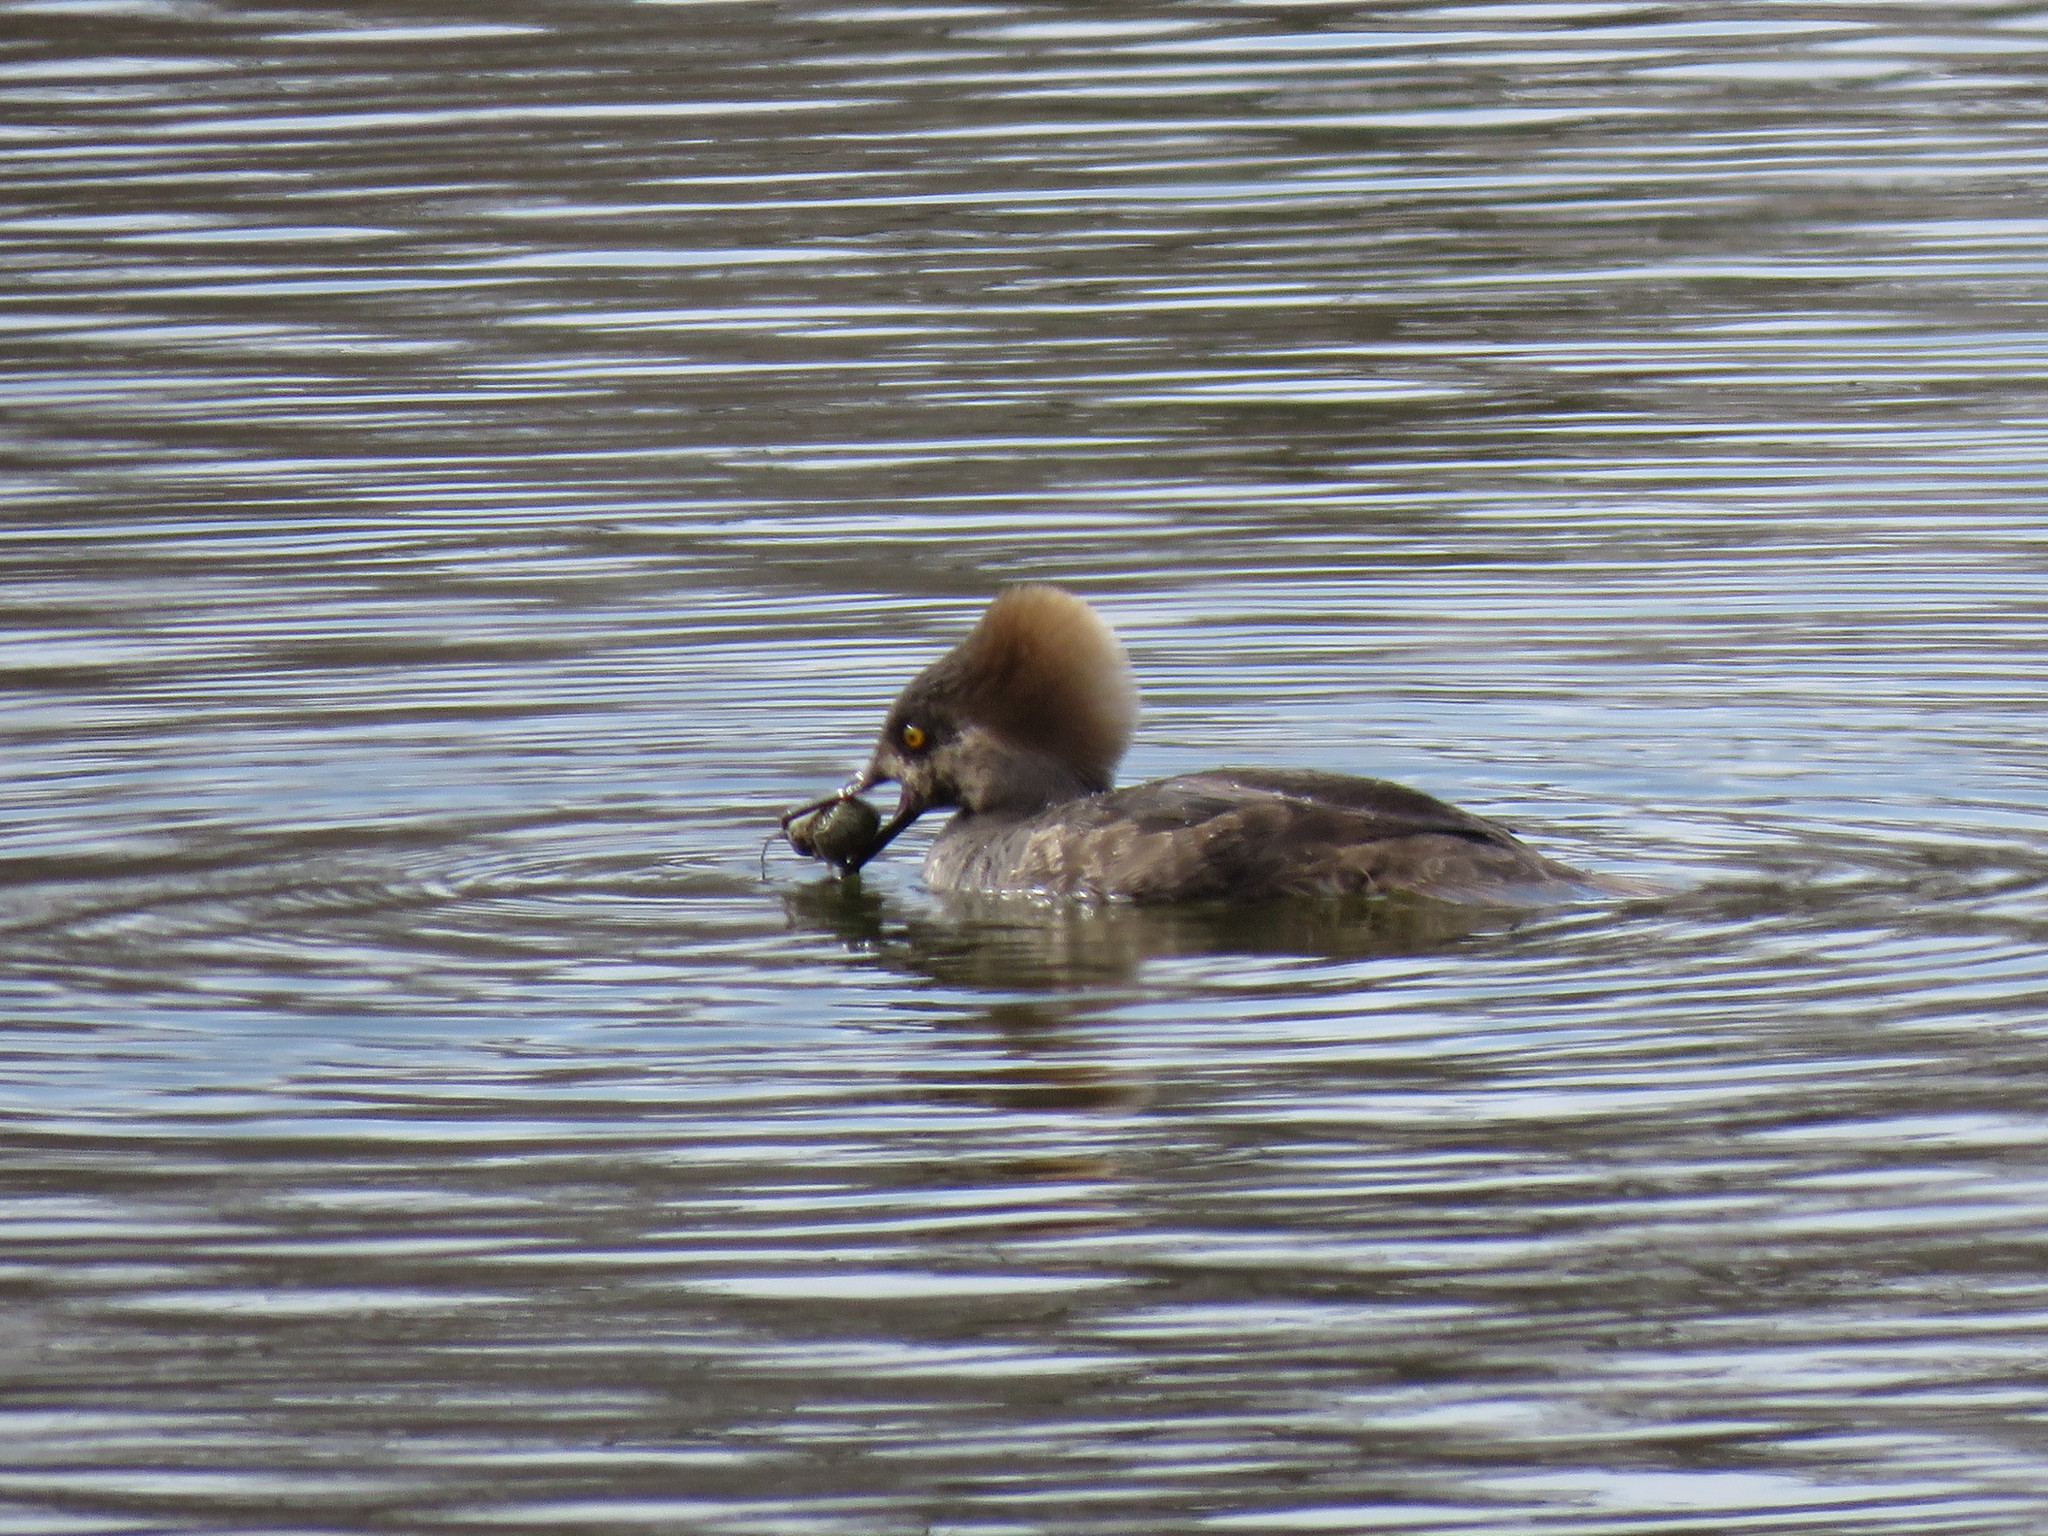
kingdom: Animalia
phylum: Chordata
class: Aves
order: Anseriformes
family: Anatidae
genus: Lophodytes
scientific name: Lophodytes cucullatus
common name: Hooded merganser
